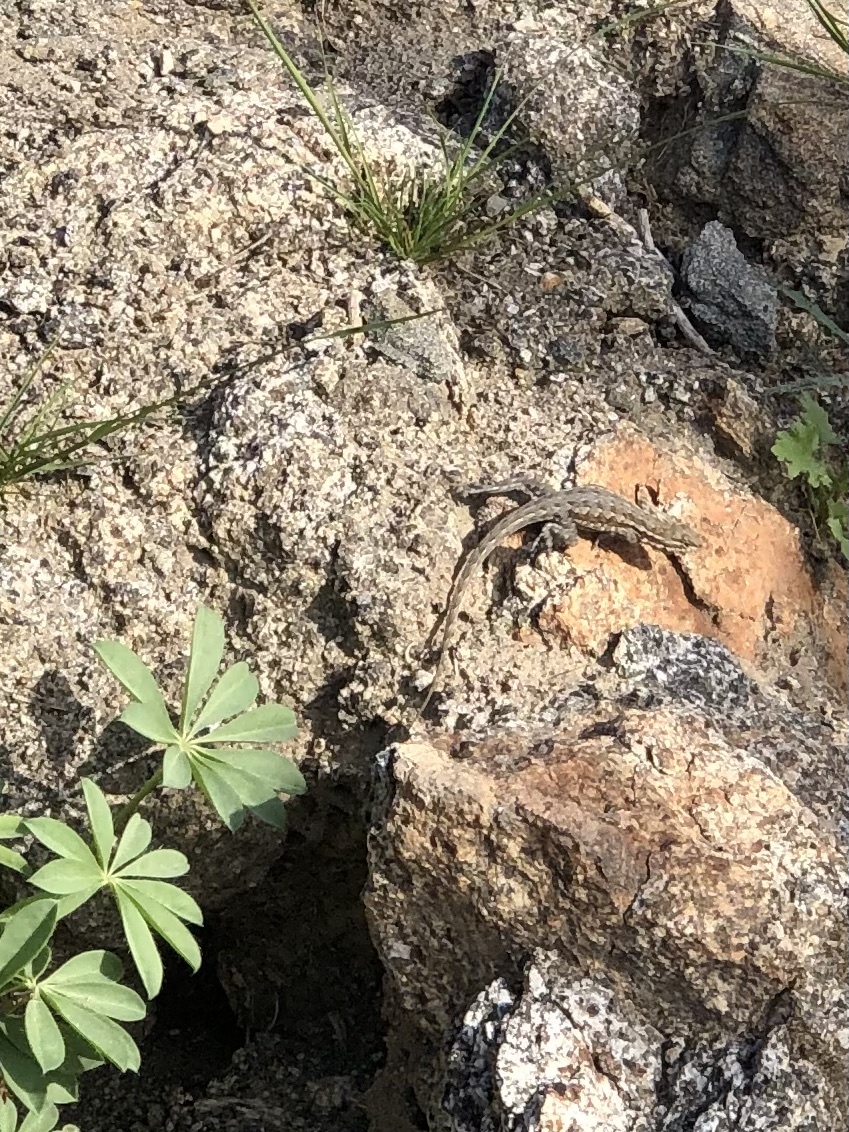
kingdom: Animalia
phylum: Chordata
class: Squamata
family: Phrynosomatidae
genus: Uta
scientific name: Uta stansburiana
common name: Side-blotched lizard
